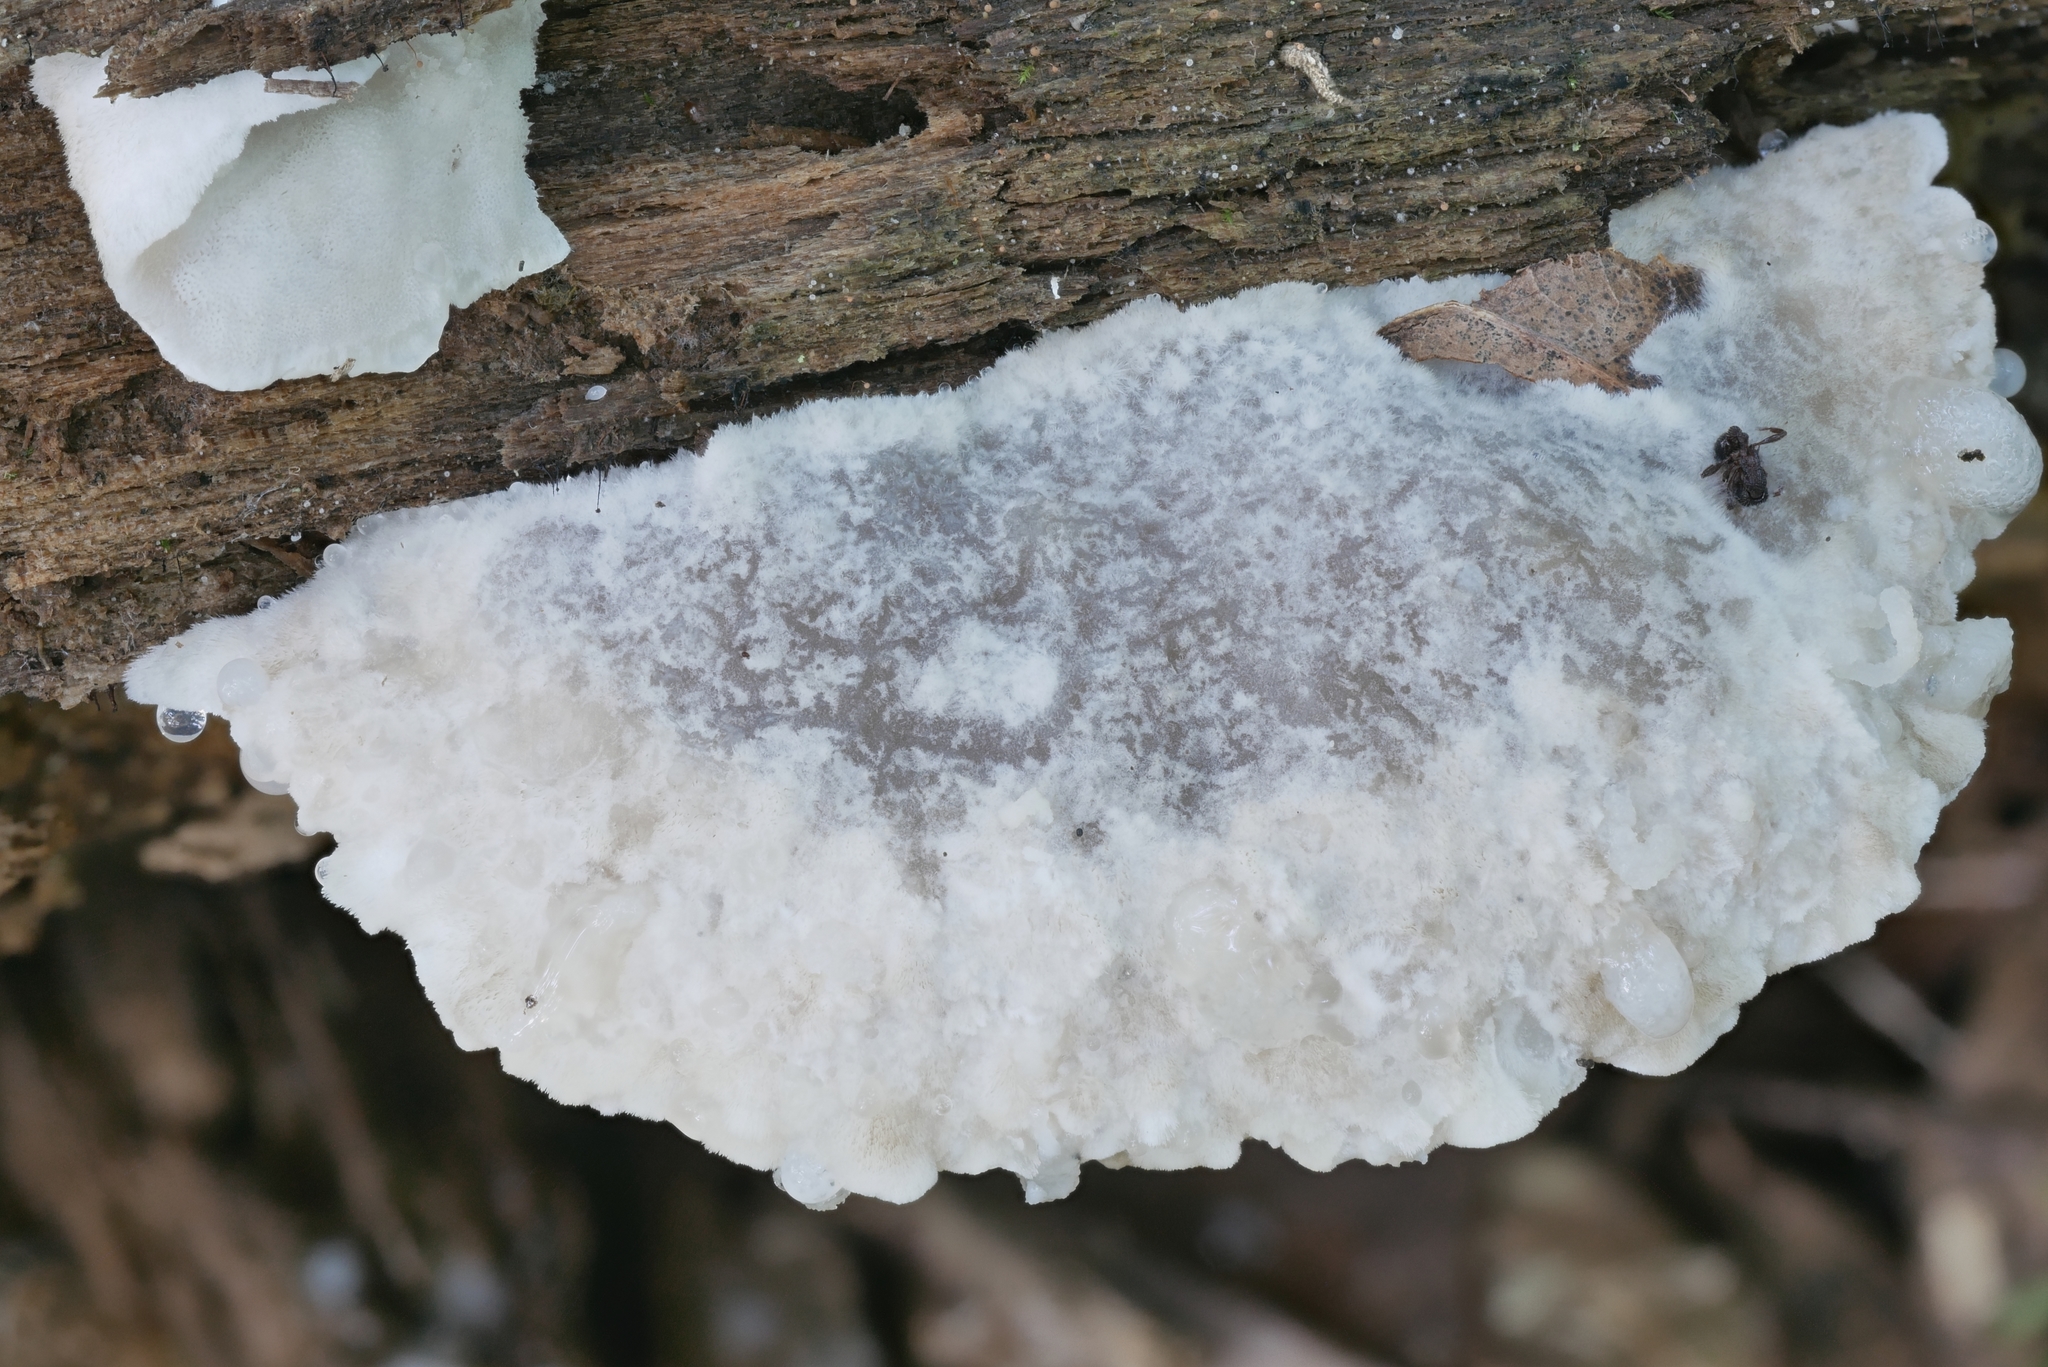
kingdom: Fungi
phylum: Basidiomycota
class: Agaricomycetes
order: Polyporales
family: Incrustoporiaceae
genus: Tyromyces
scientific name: Tyromyces galactinus
